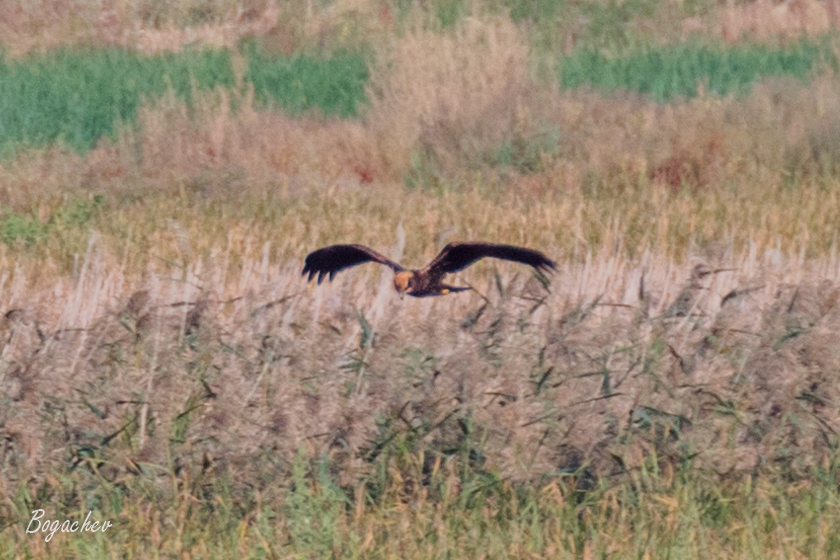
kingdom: Animalia
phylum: Chordata
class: Aves
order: Accipitriformes
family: Accipitridae
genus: Circus
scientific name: Circus aeruginosus
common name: Western marsh harrier
